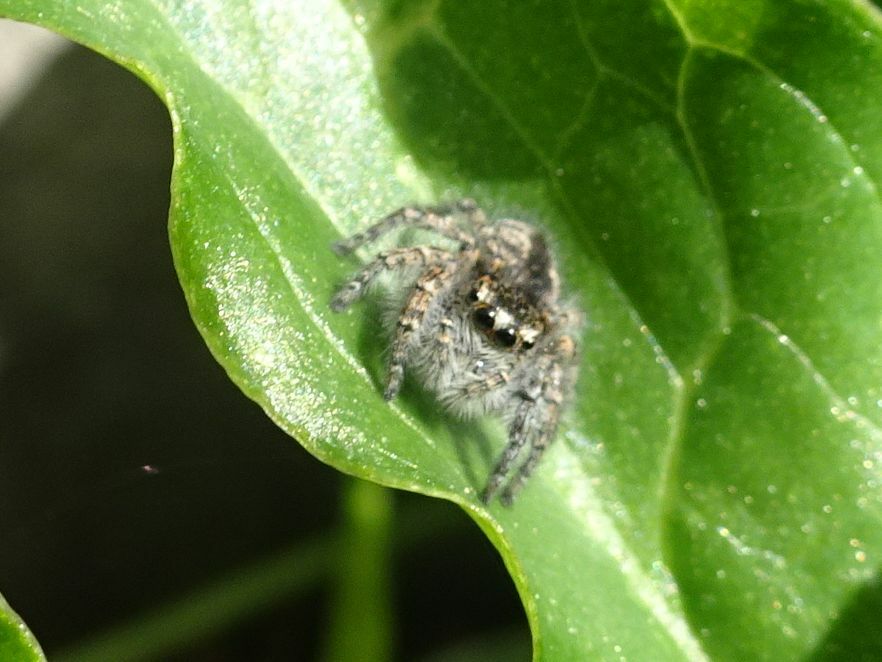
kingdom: Animalia
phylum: Arthropoda
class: Arachnida
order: Araneae
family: Salticidae
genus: Philaeus
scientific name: Philaeus chrysops
